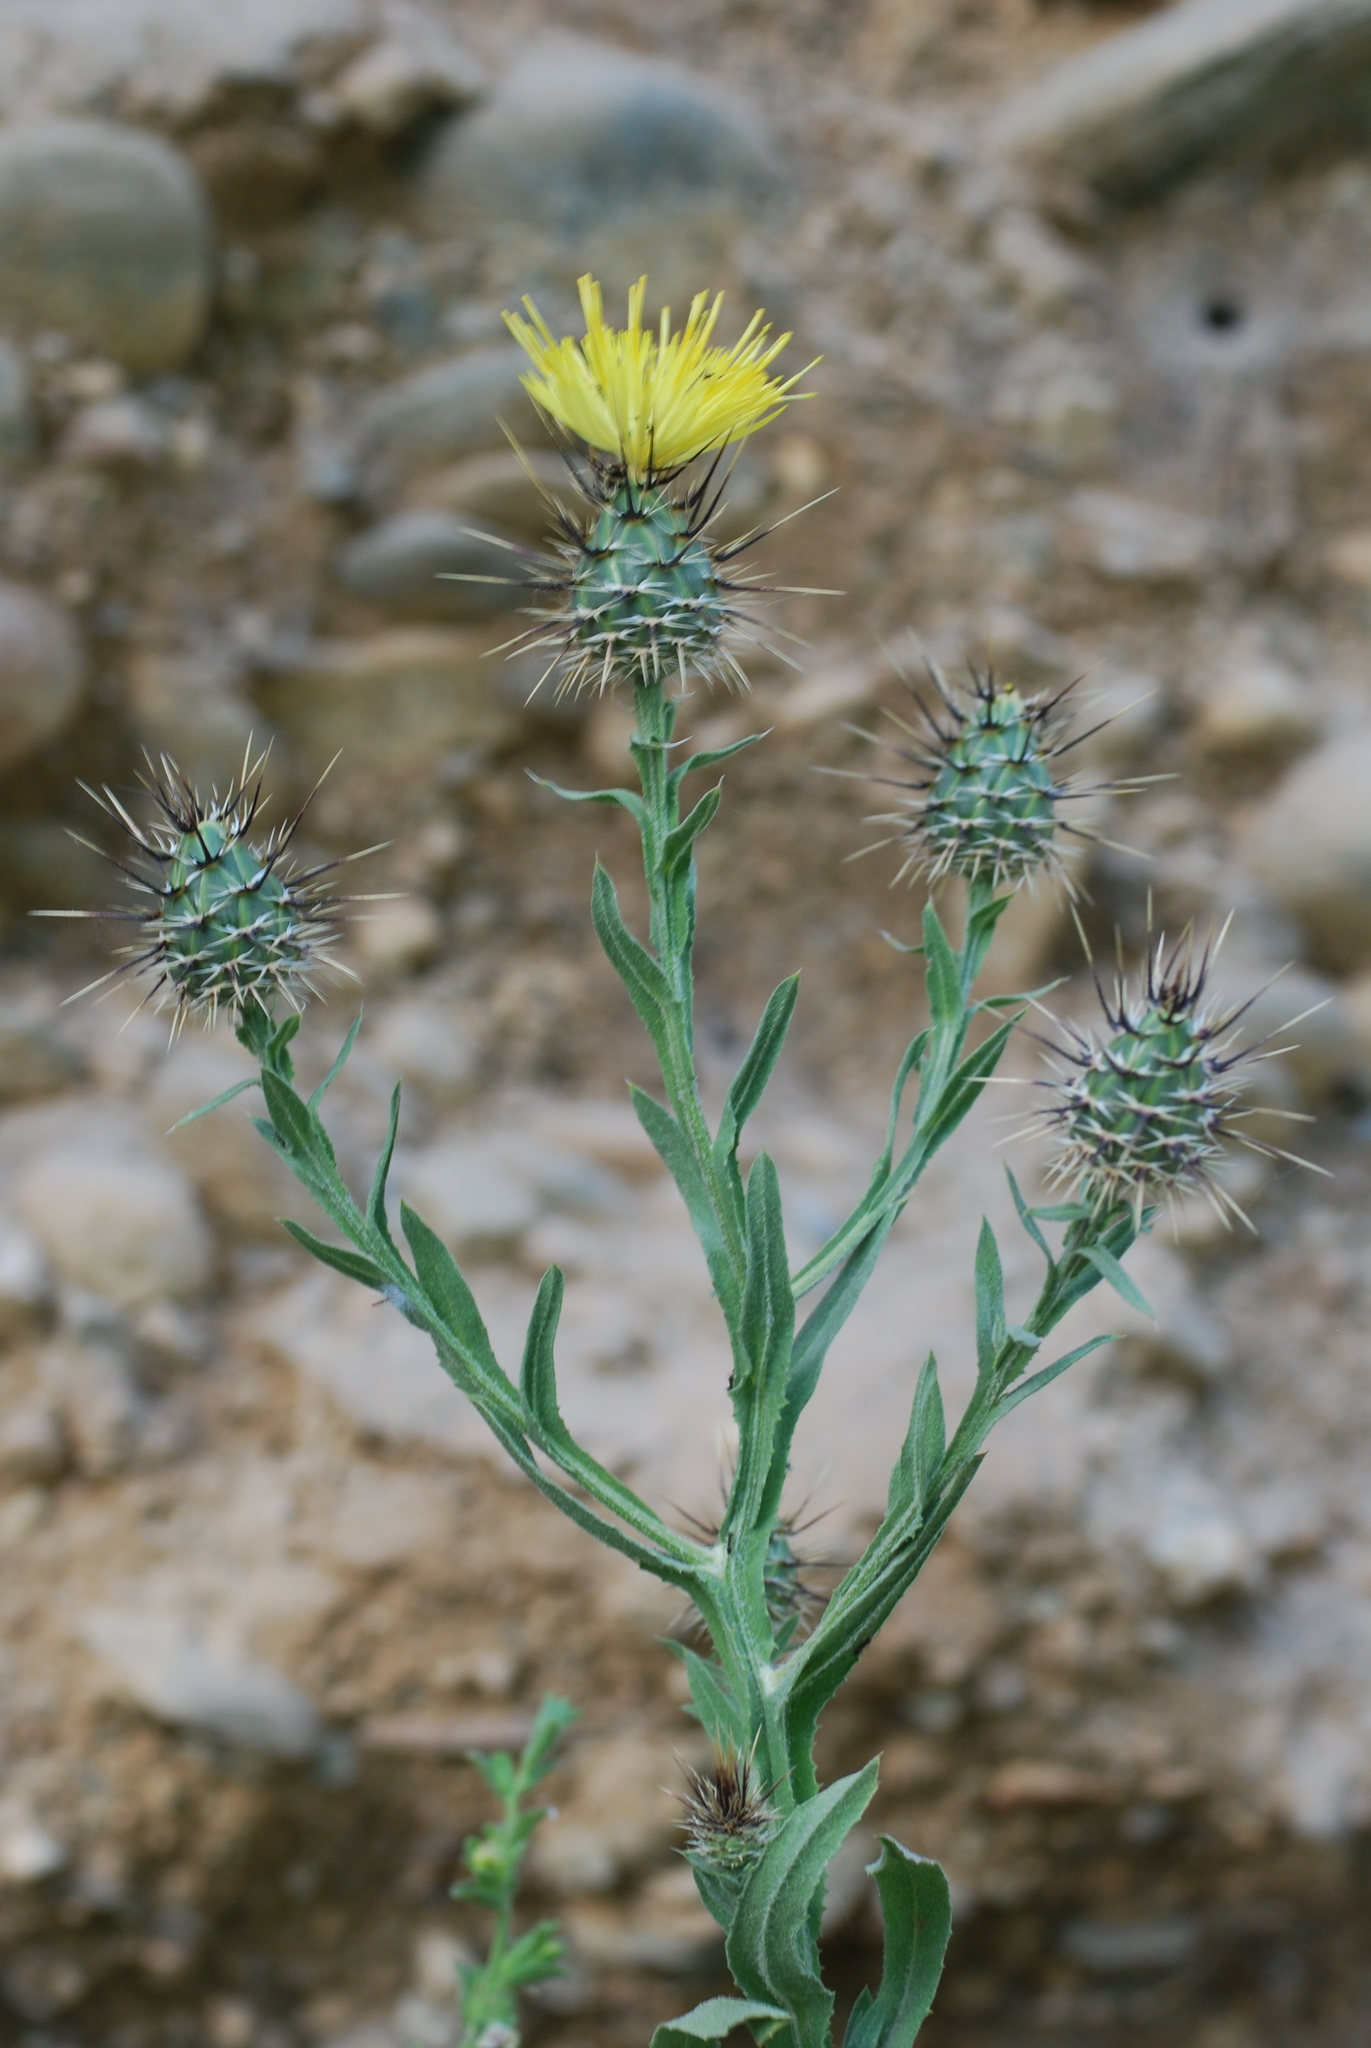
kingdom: Plantae
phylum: Tracheophyta
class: Magnoliopsida
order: Asterales
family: Asteraceae
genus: Centaurea
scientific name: Centaurea sulphurea
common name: Sulphur knapweed
